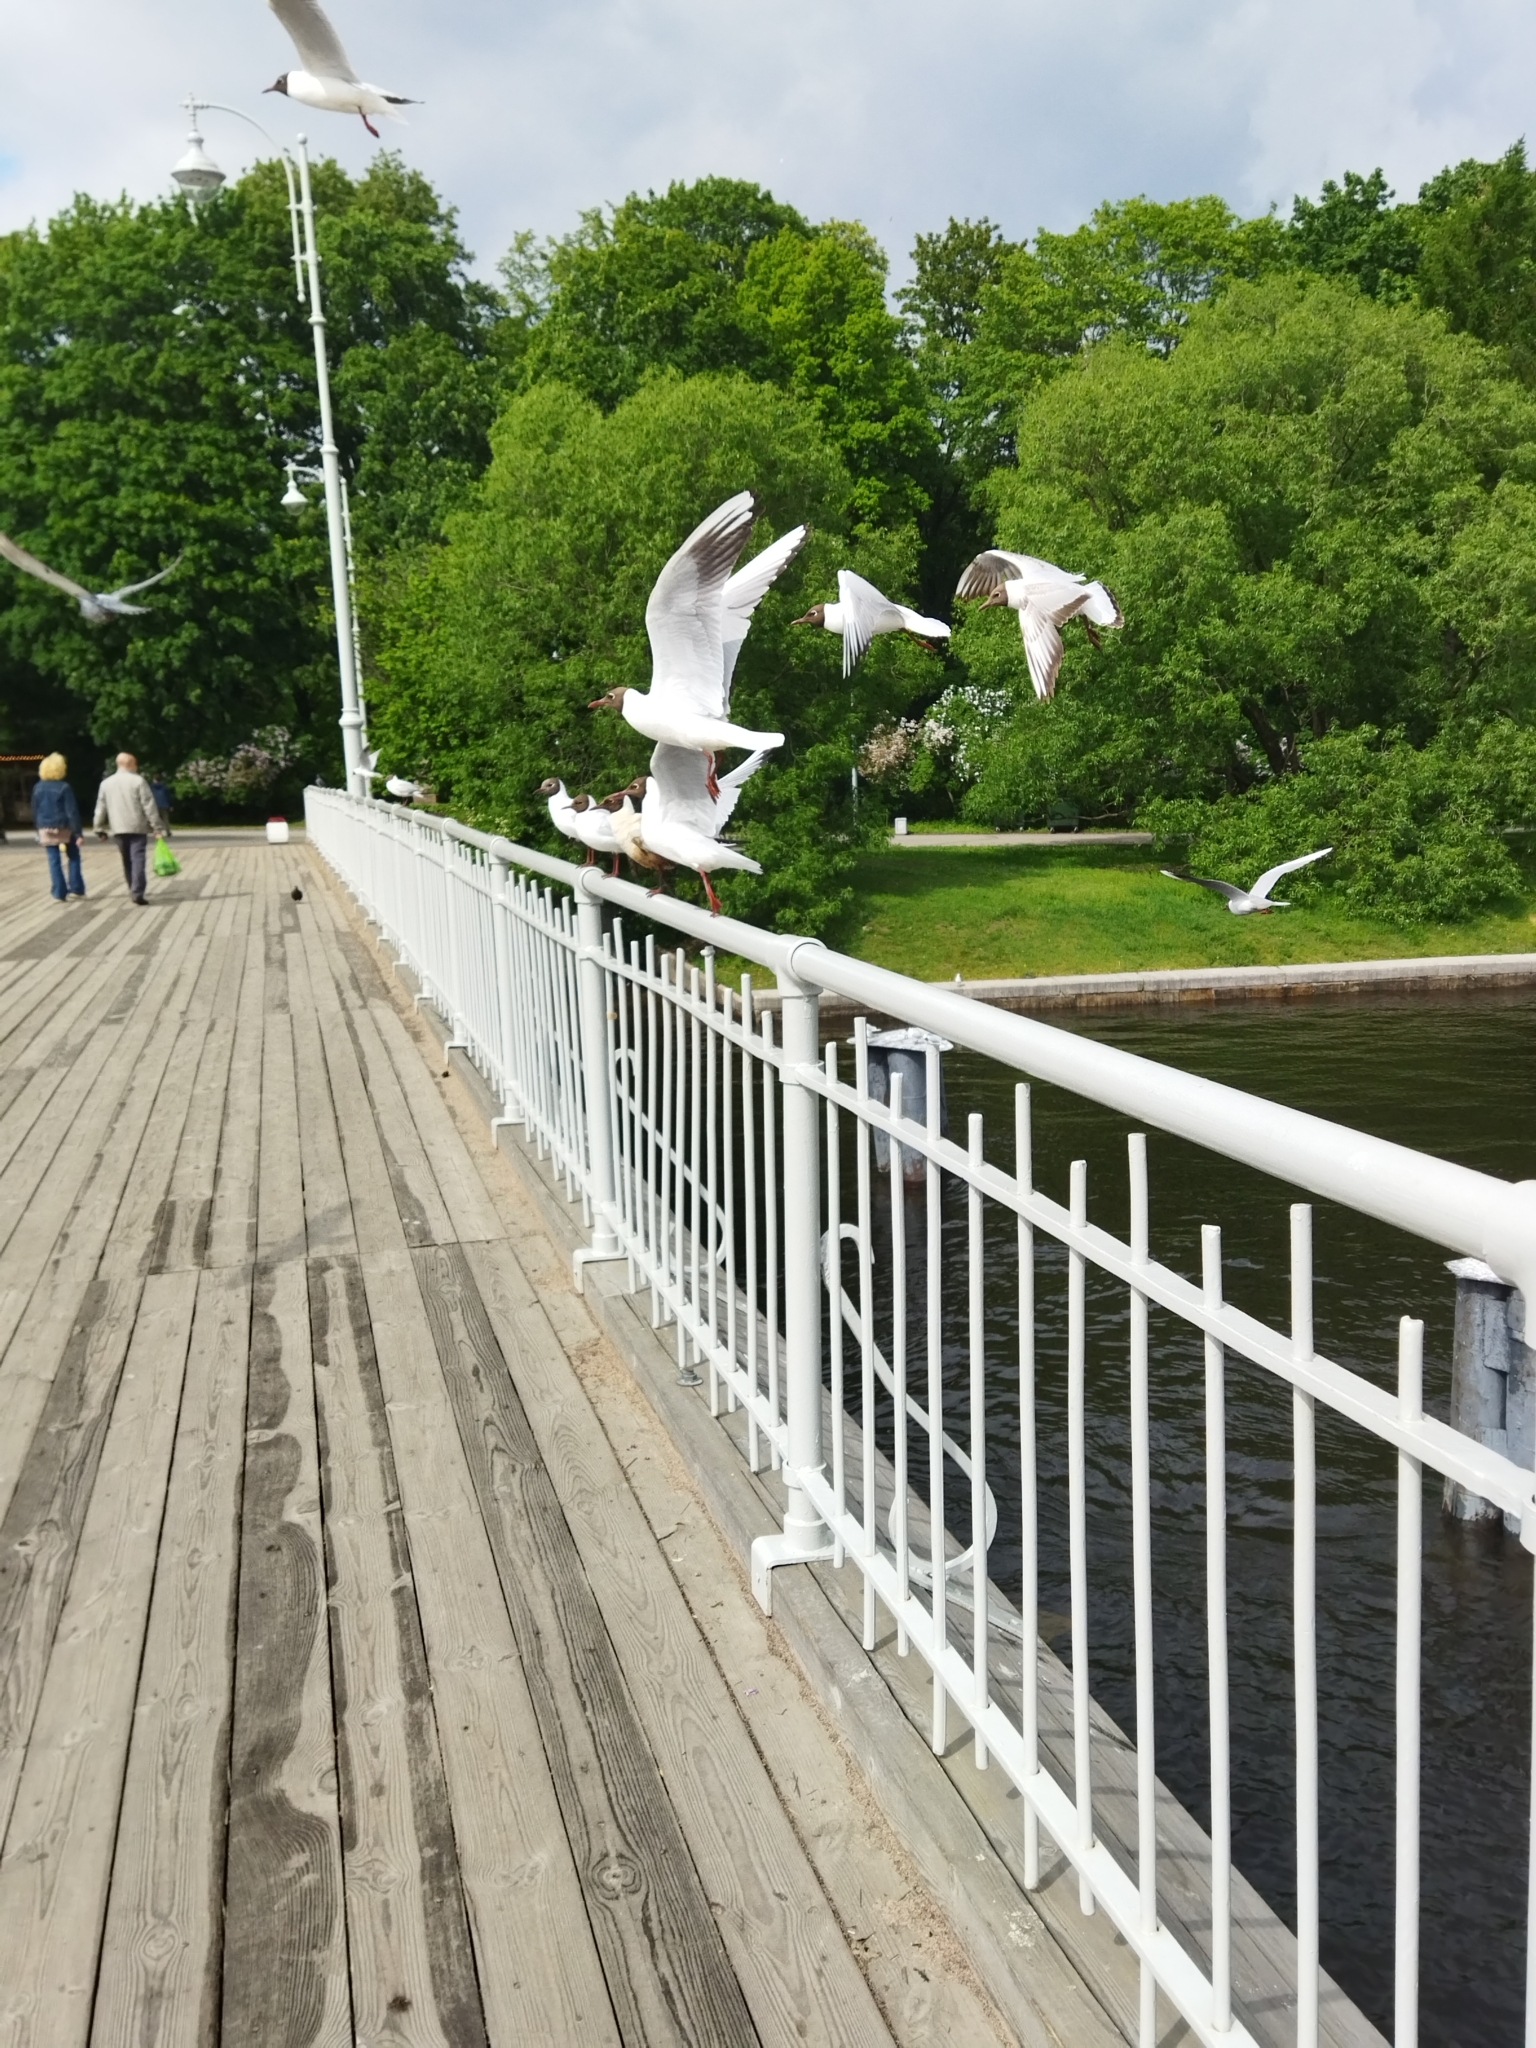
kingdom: Animalia
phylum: Chordata
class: Aves
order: Charadriiformes
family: Laridae
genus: Chroicocephalus
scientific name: Chroicocephalus ridibundus
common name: Black-headed gull
